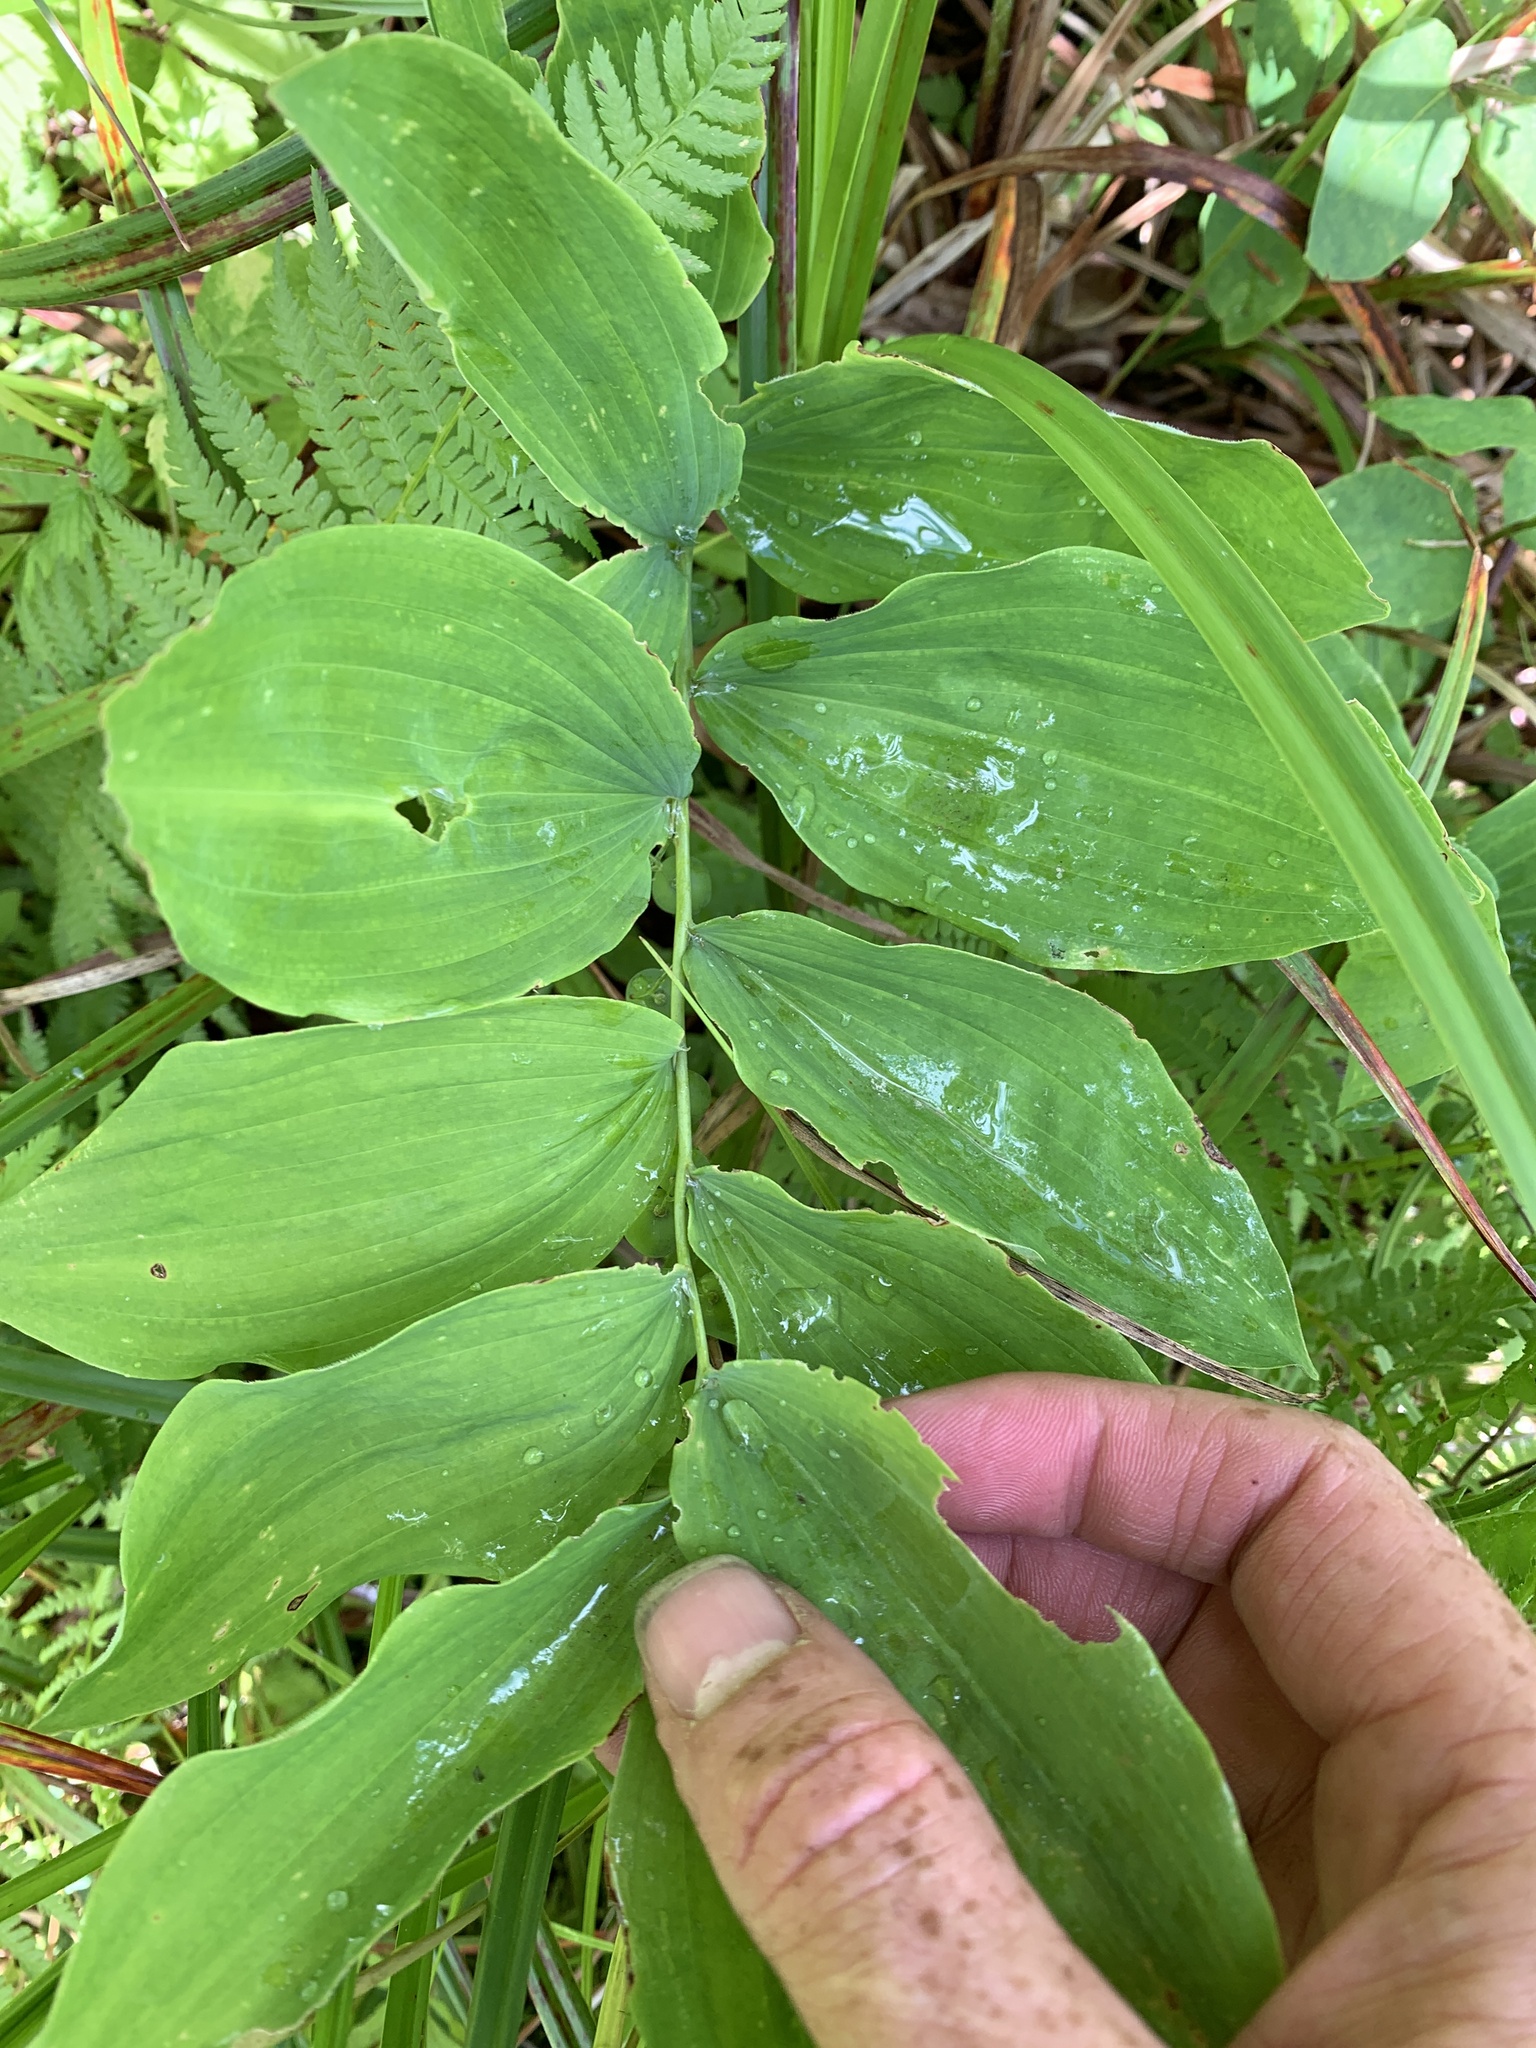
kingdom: Plantae
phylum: Tracheophyta
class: Liliopsida
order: Asparagales
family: Asparagaceae
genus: Polygonatum
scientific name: Polygonatum pubescens
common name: Downy solomon's seal
